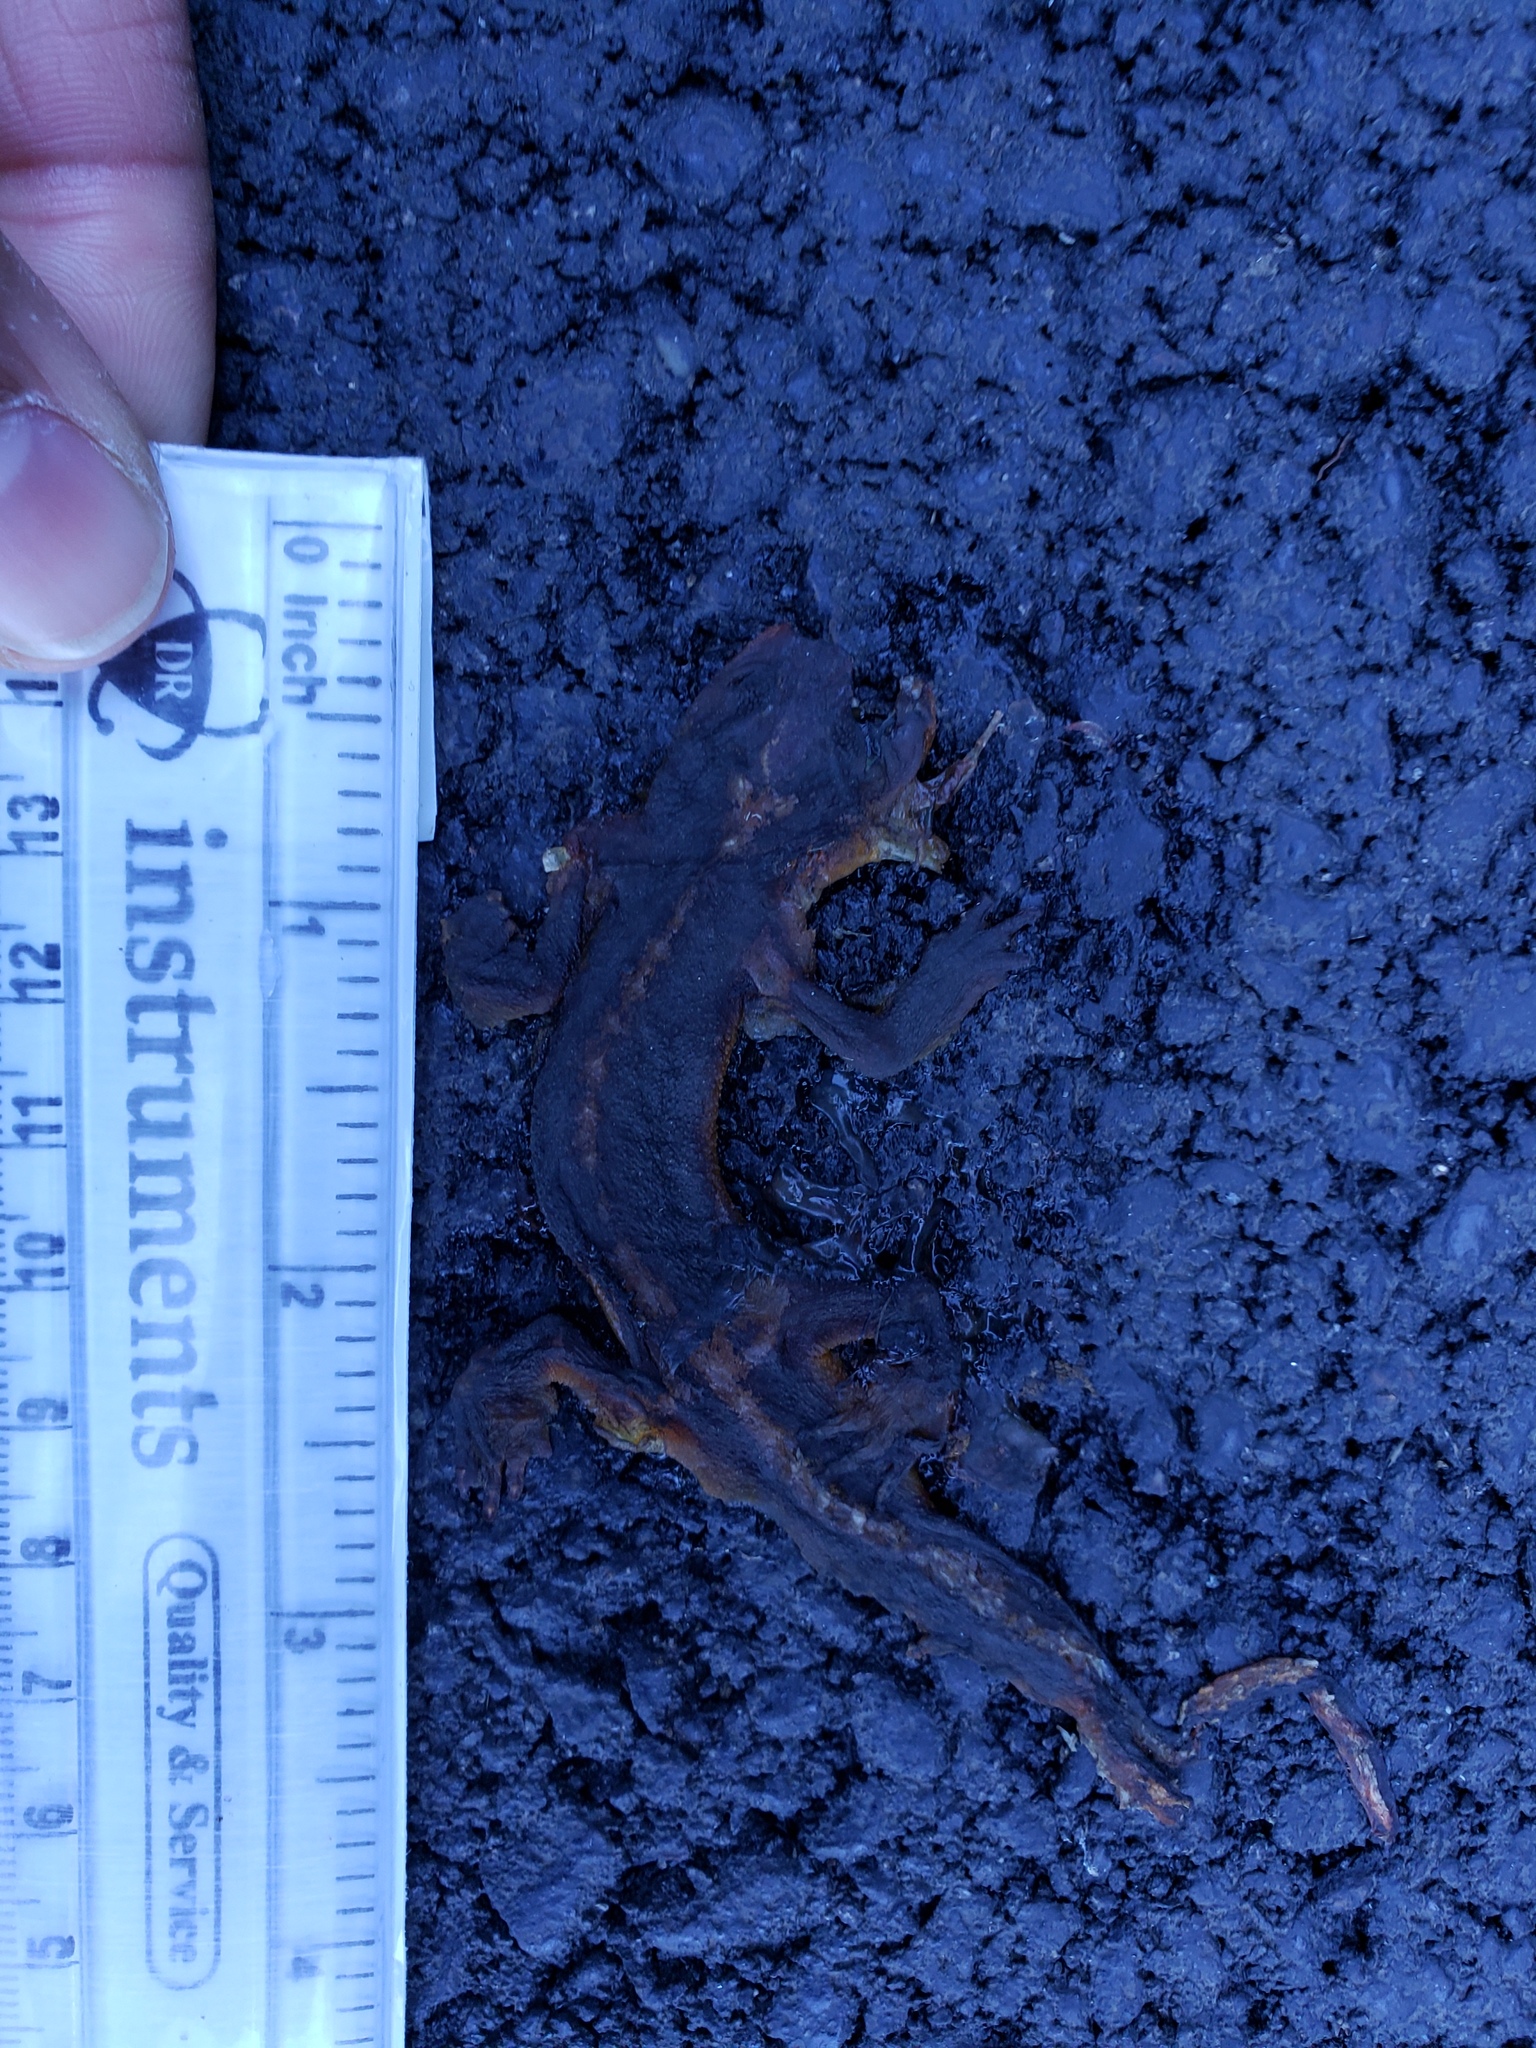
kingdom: Animalia
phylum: Chordata
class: Amphibia
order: Caudata
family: Salamandridae
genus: Taricha
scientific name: Taricha
